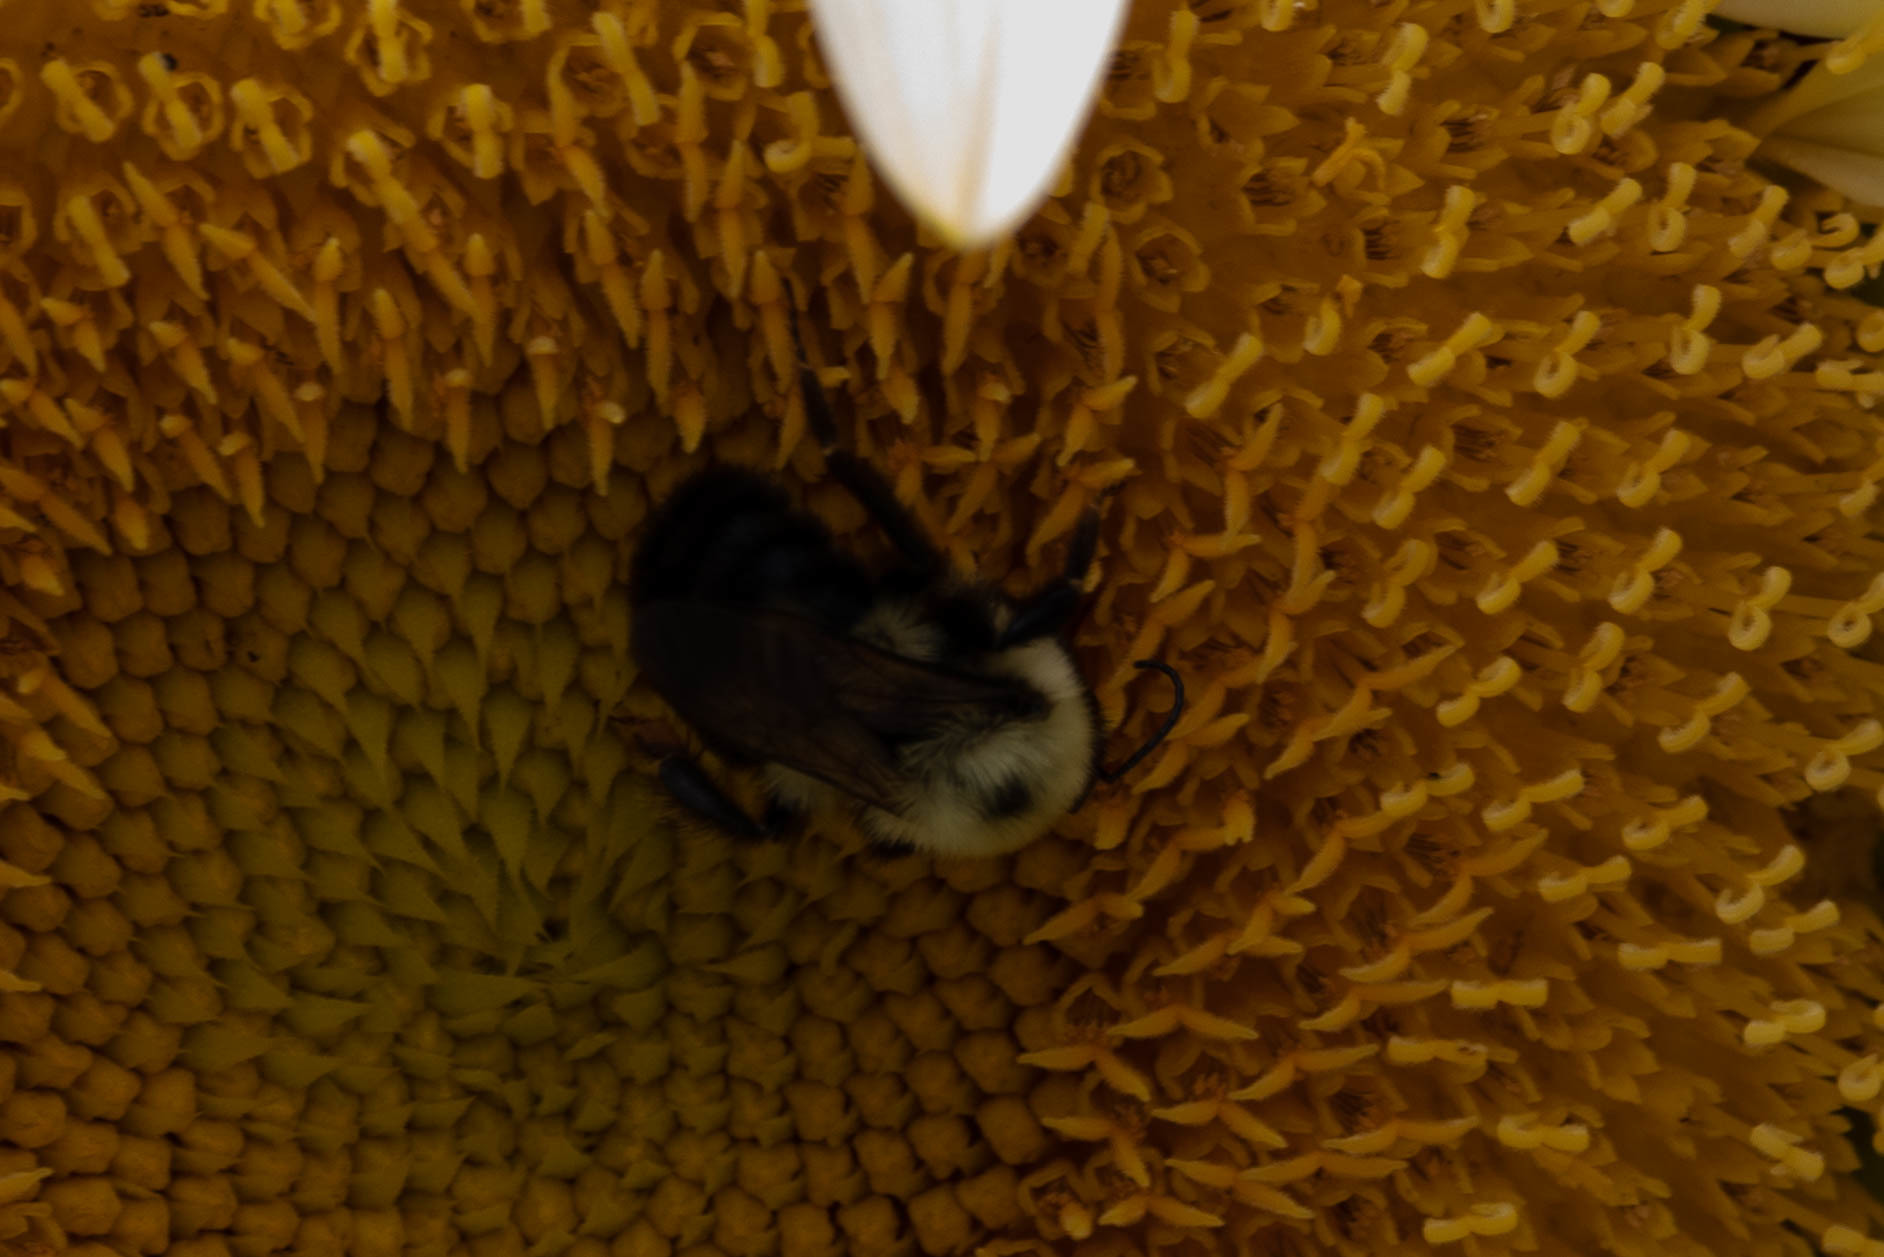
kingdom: Animalia
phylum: Arthropoda
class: Insecta
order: Hymenoptera
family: Apidae
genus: Bombus
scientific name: Bombus bimaculatus
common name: Two-spotted bumble bee
